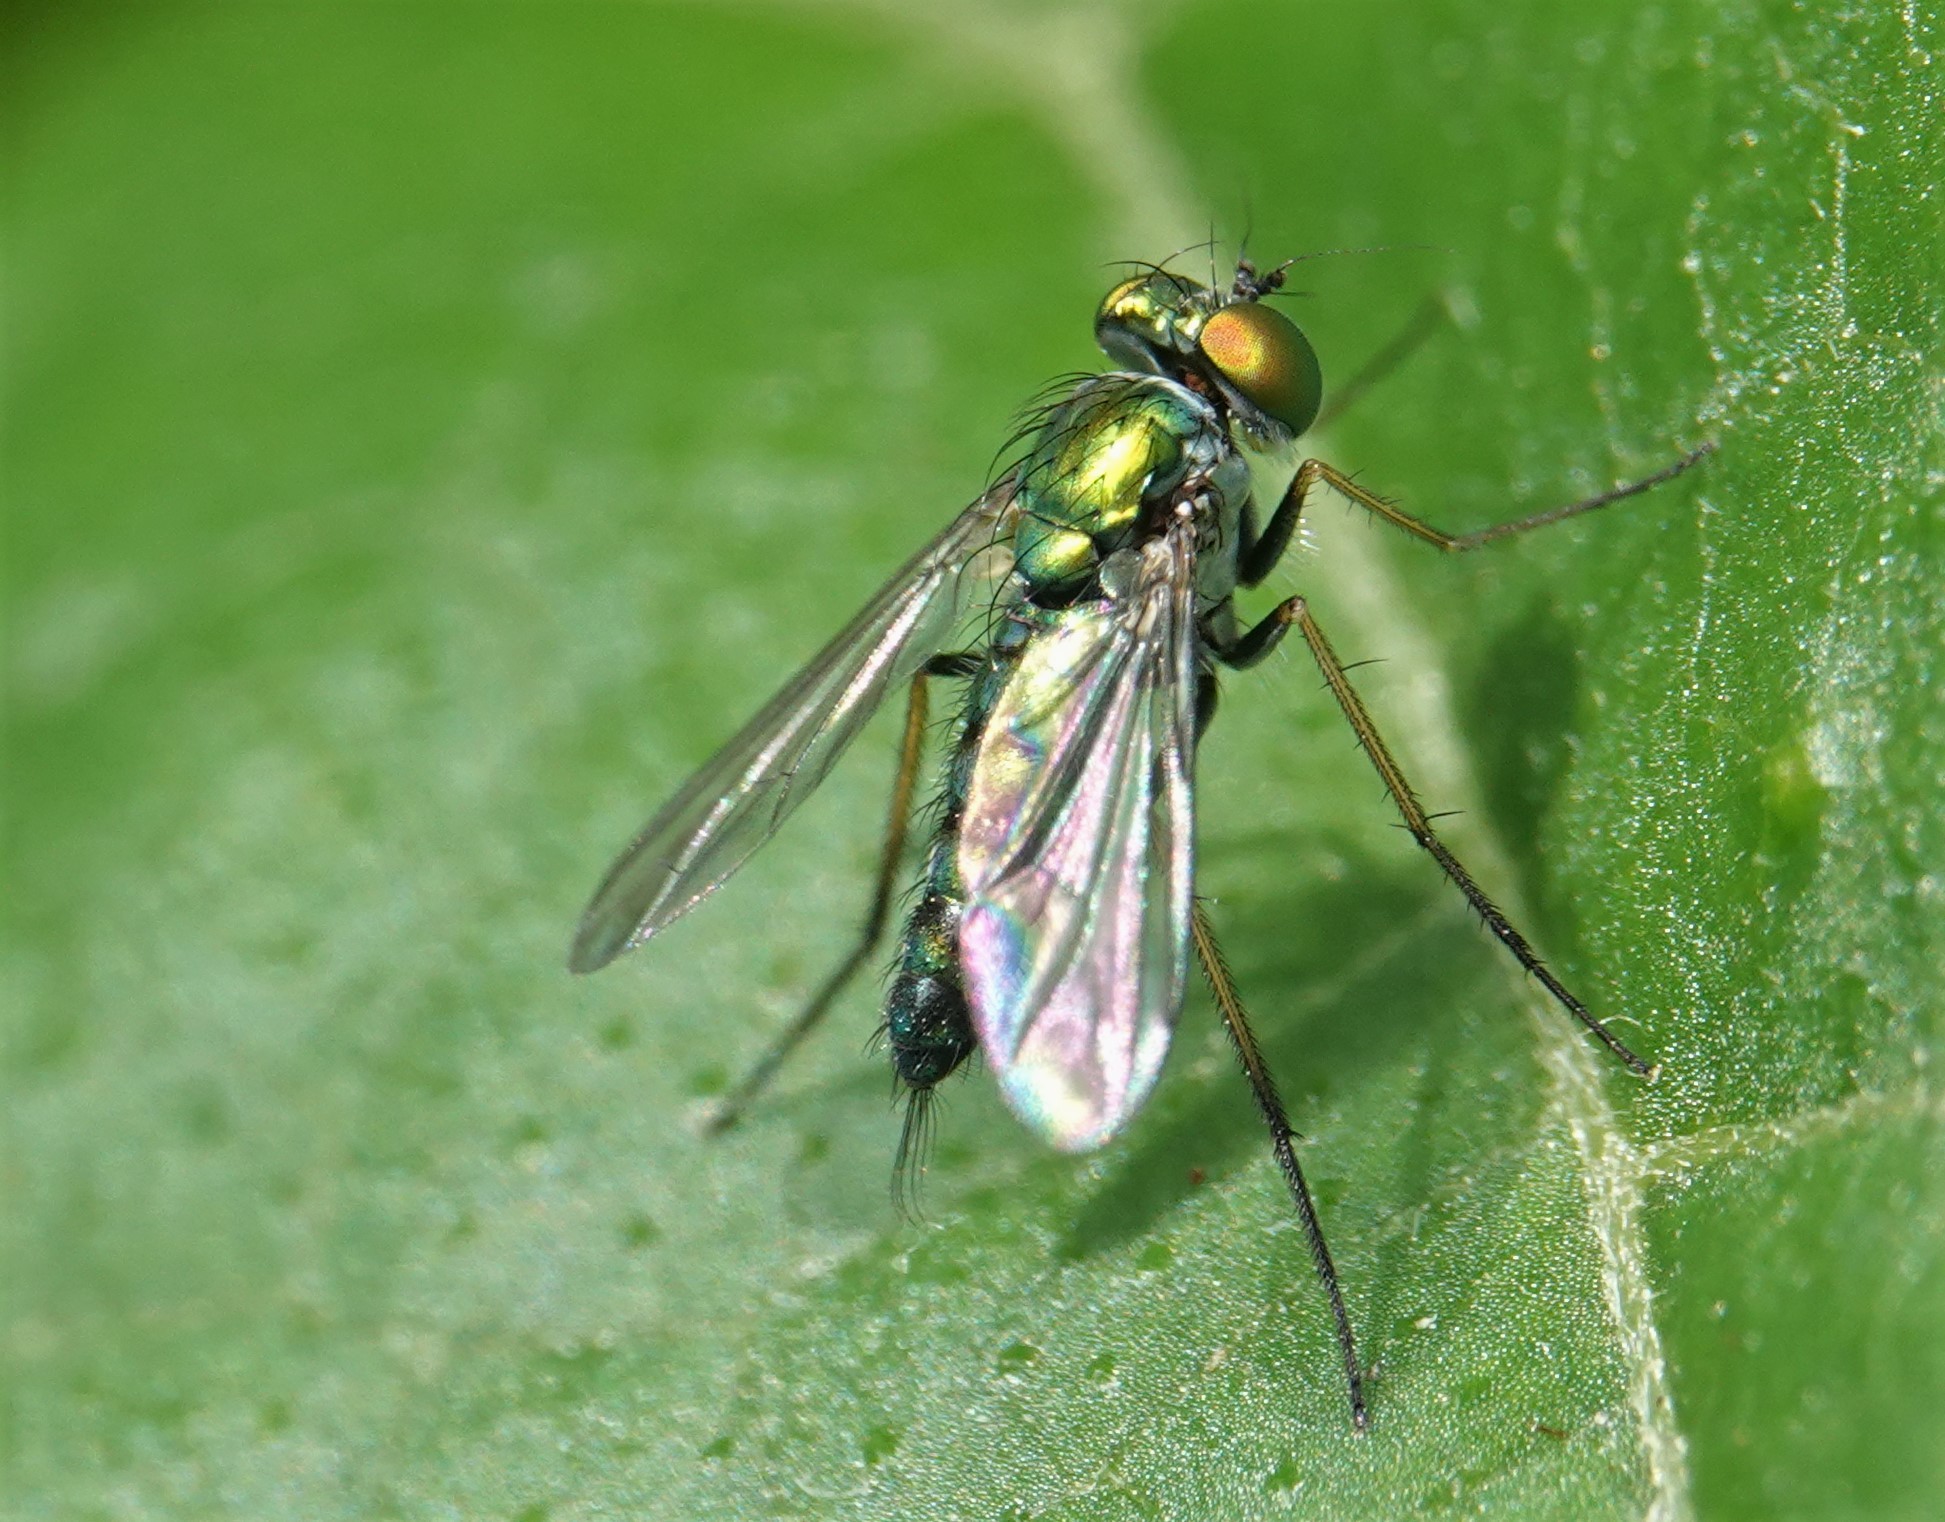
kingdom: Animalia
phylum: Arthropoda
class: Insecta
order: Diptera
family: Dolichopodidae
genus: Condylostylus
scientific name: Condylostylus caudatus
